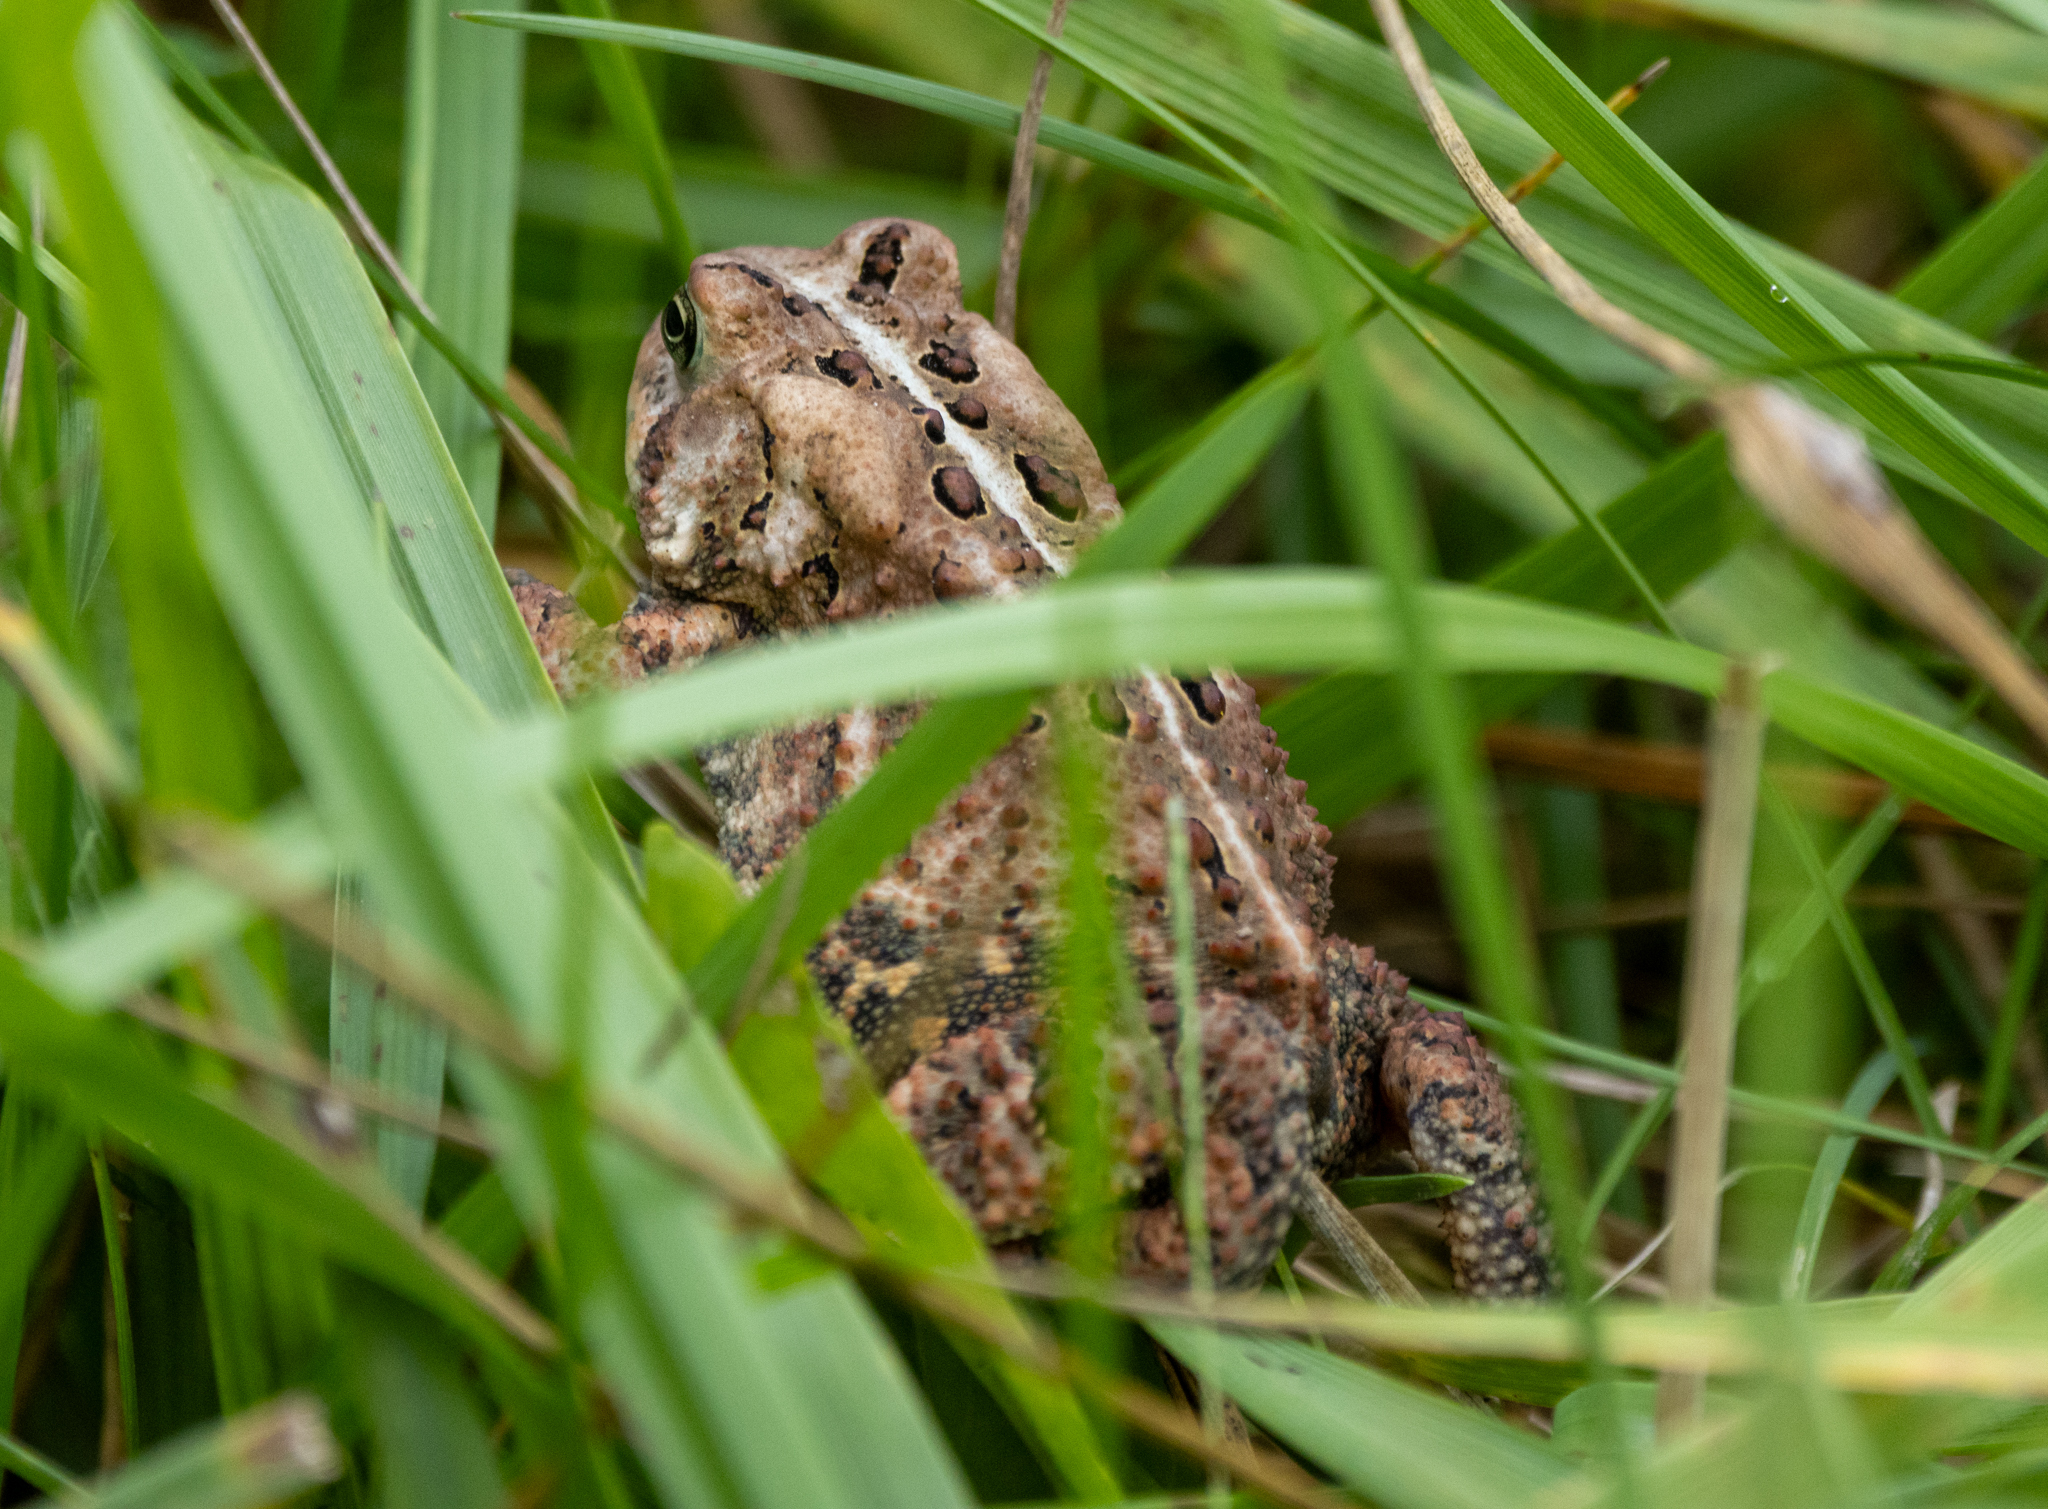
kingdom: Animalia
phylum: Chordata
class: Amphibia
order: Anura
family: Bufonidae
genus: Anaxyrus
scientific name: Anaxyrus americanus
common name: American toad
